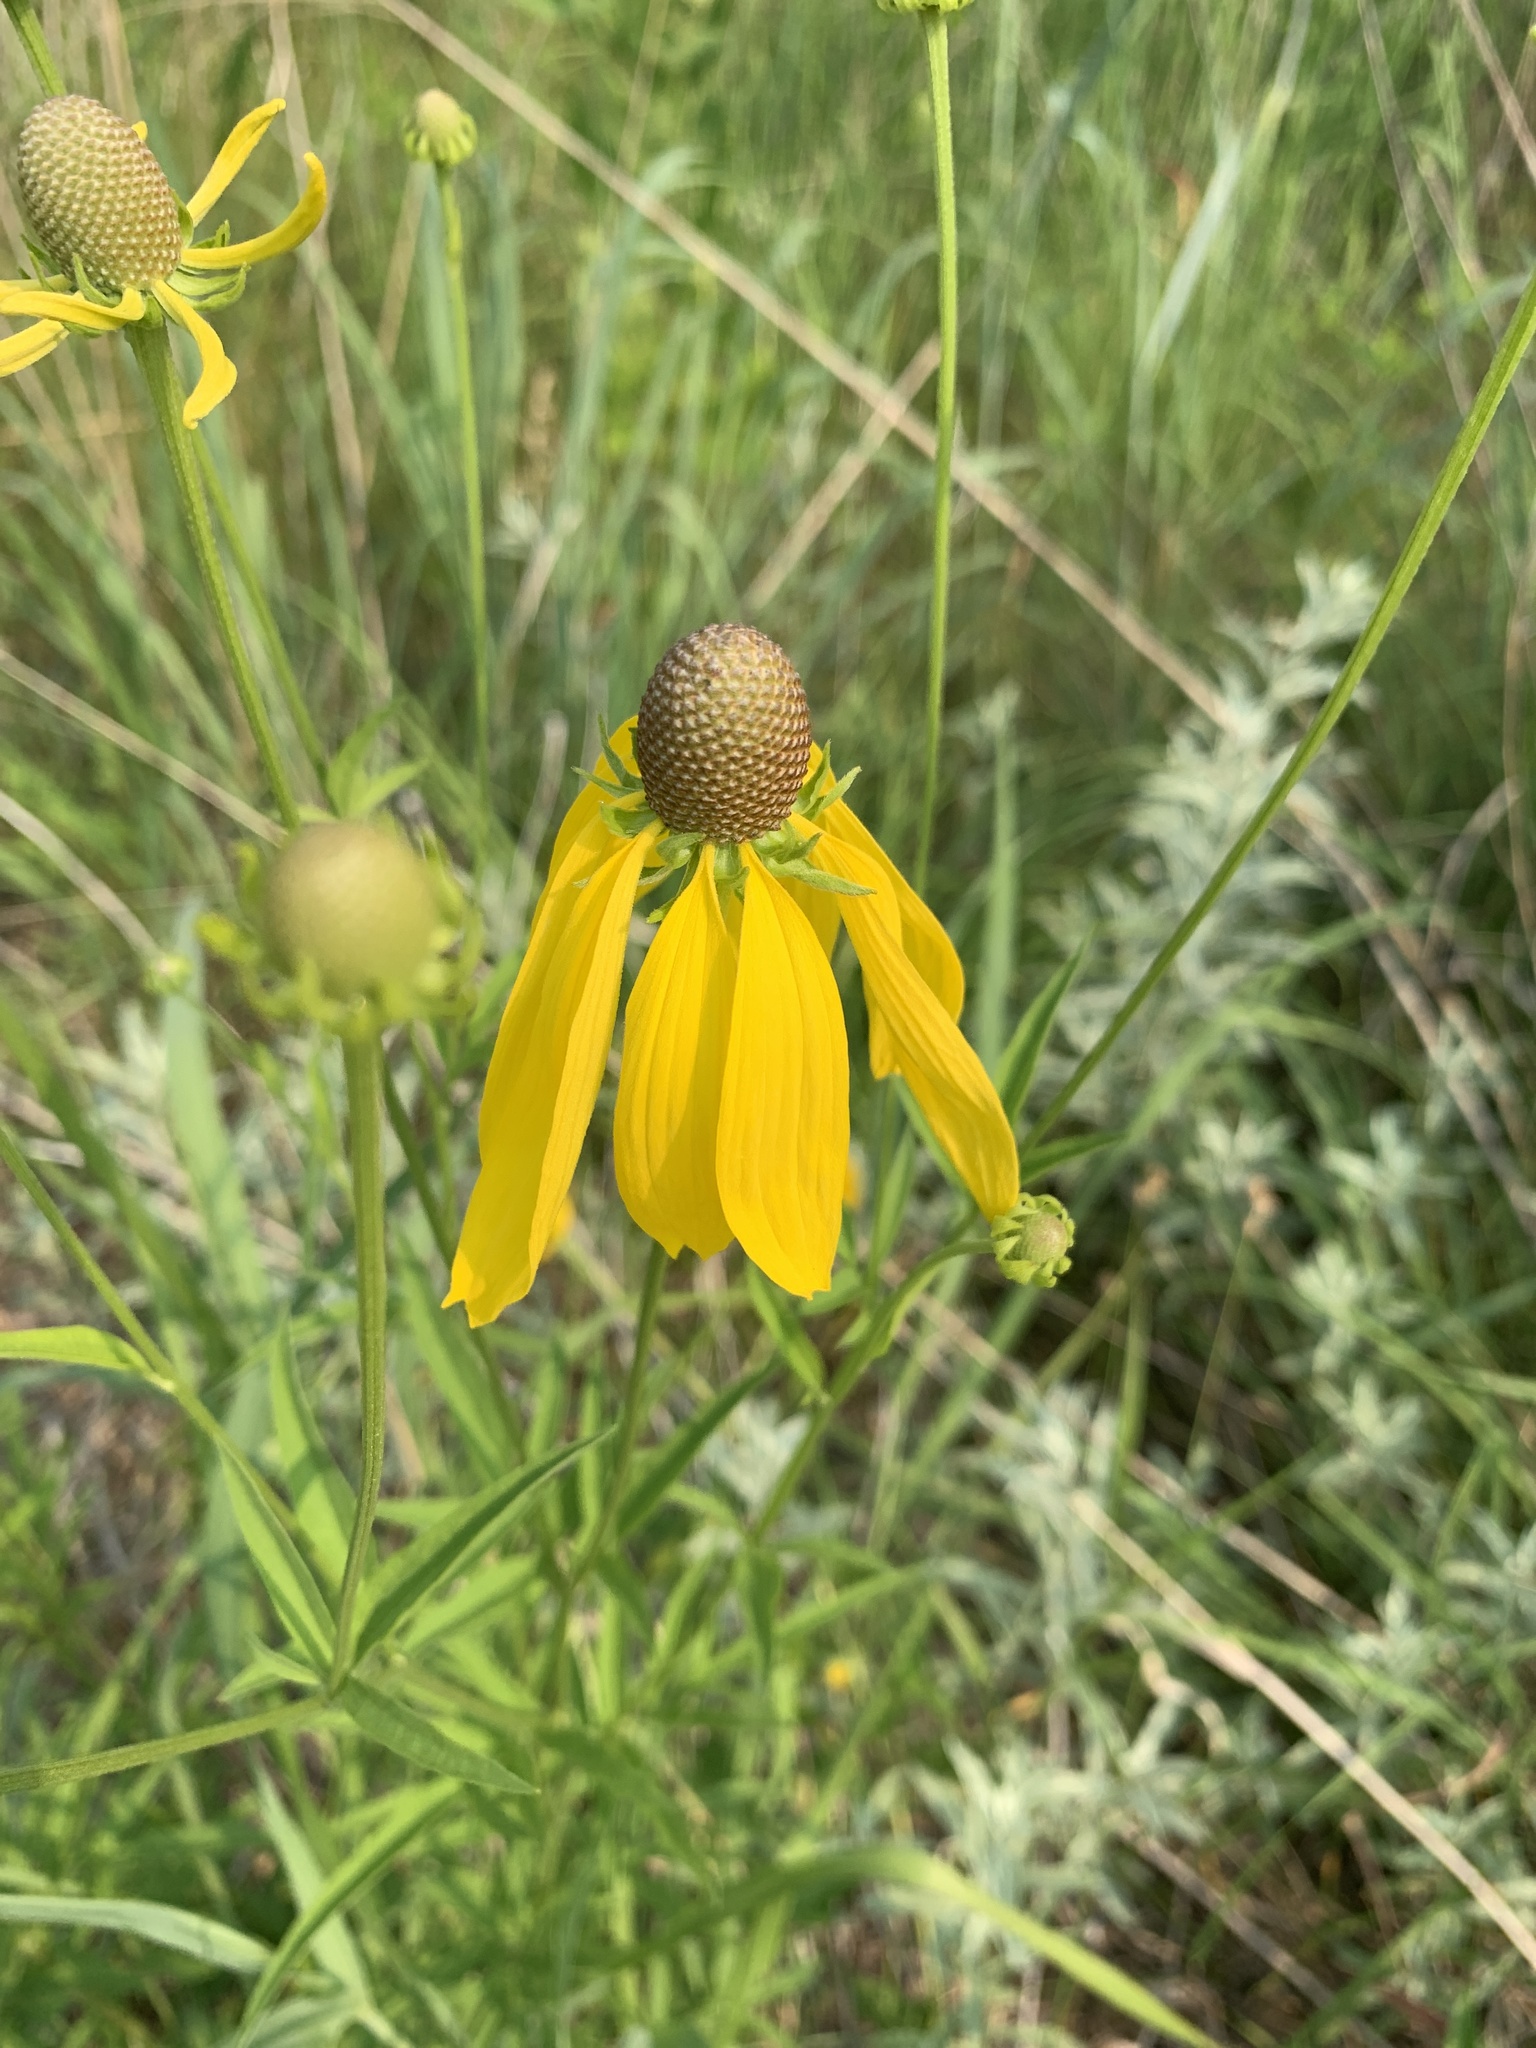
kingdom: Plantae
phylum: Tracheophyta
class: Magnoliopsida
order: Asterales
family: Asteraceae
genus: Ratibida
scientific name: Ratibida pinnata
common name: Drooping prairie-coneflower
